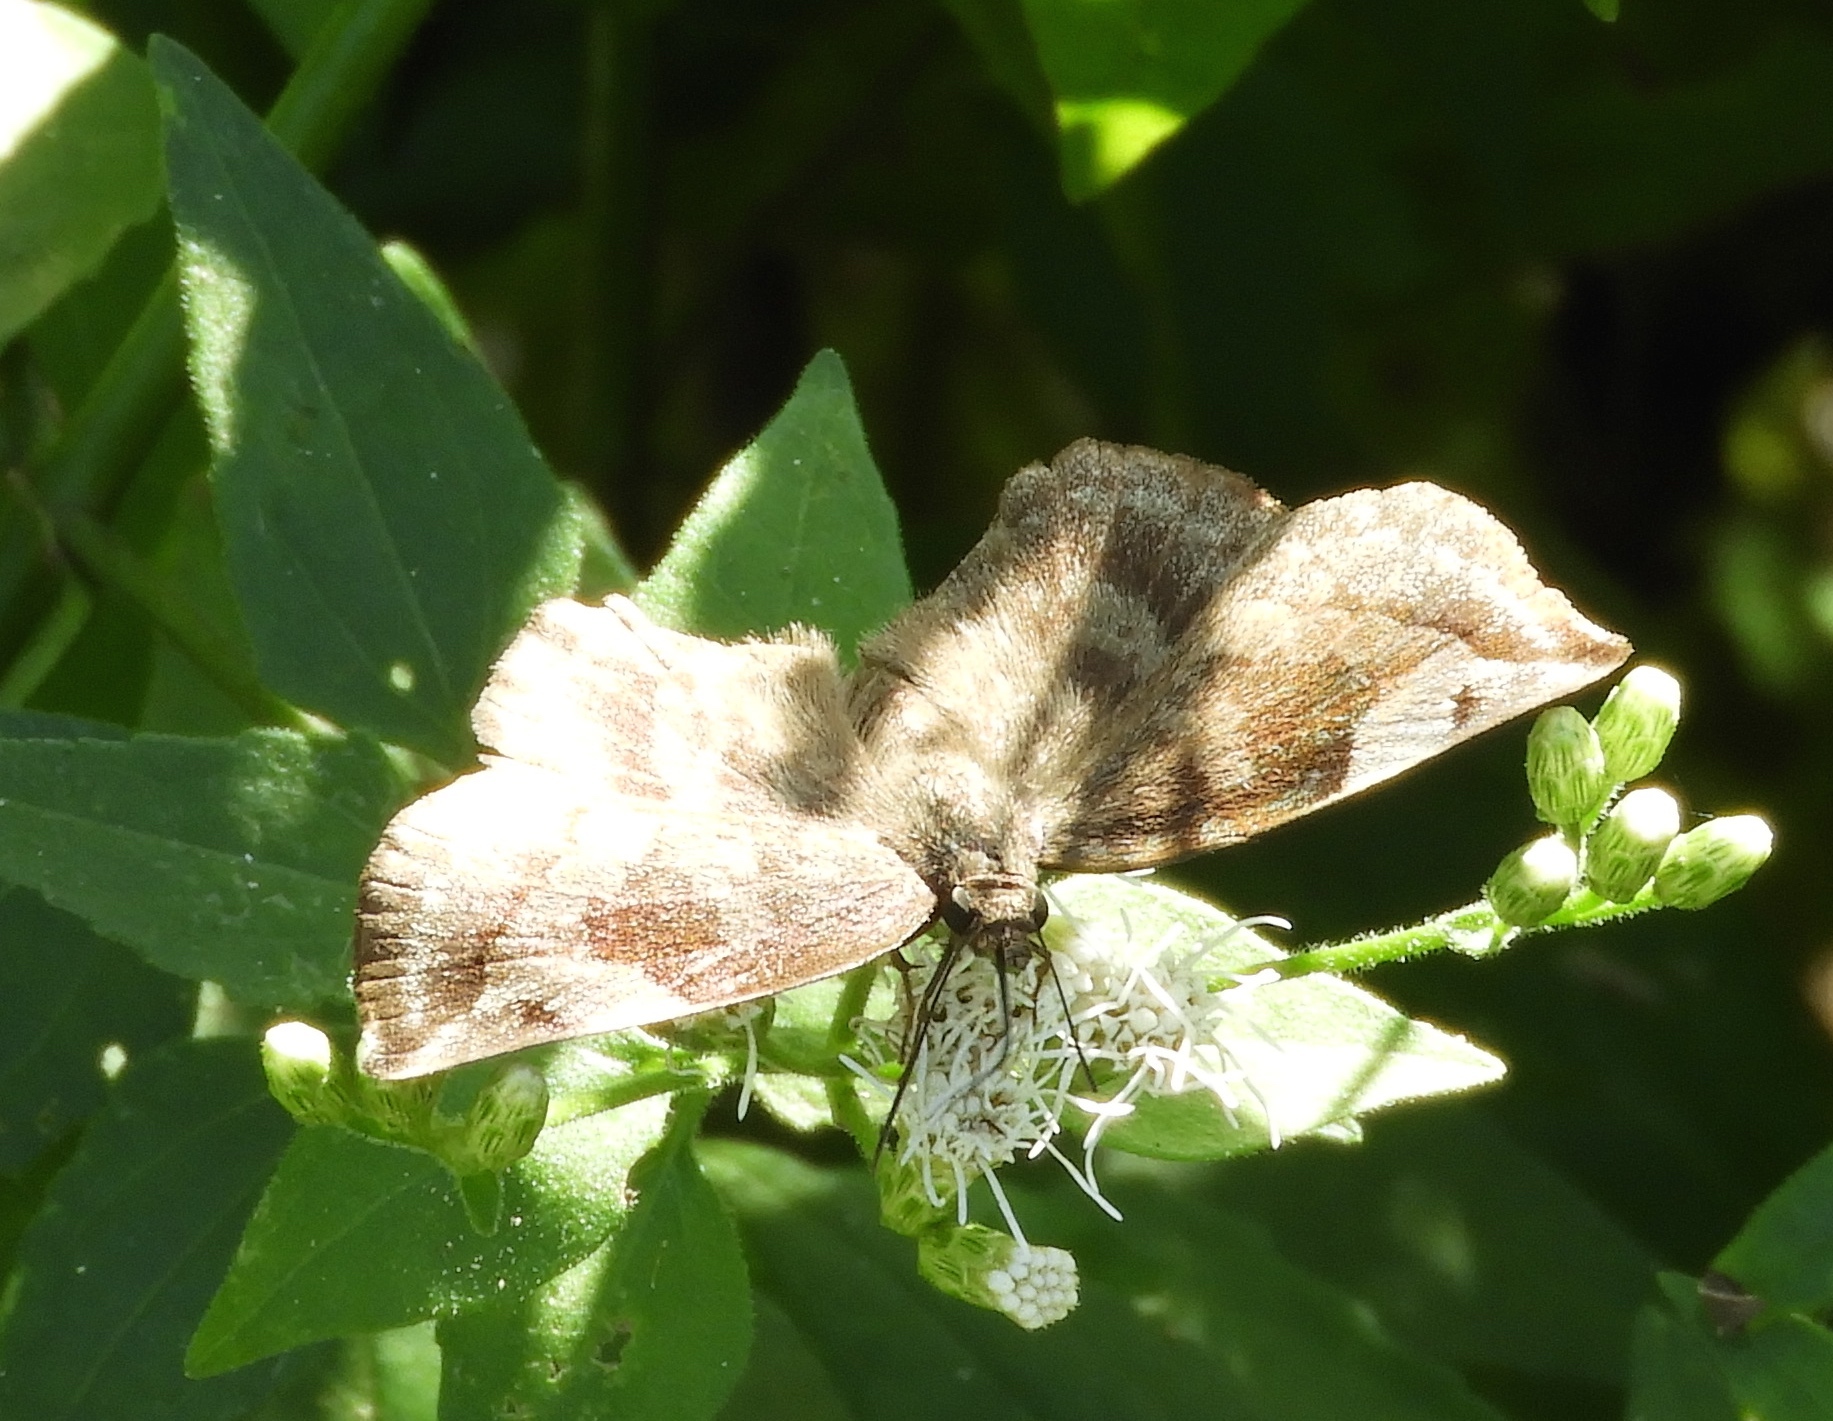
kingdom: Animalia
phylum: Arthropoda
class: Insecta
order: Lepidoptera
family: Hesperiidae
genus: Achlyodes
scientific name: Achlyodes
